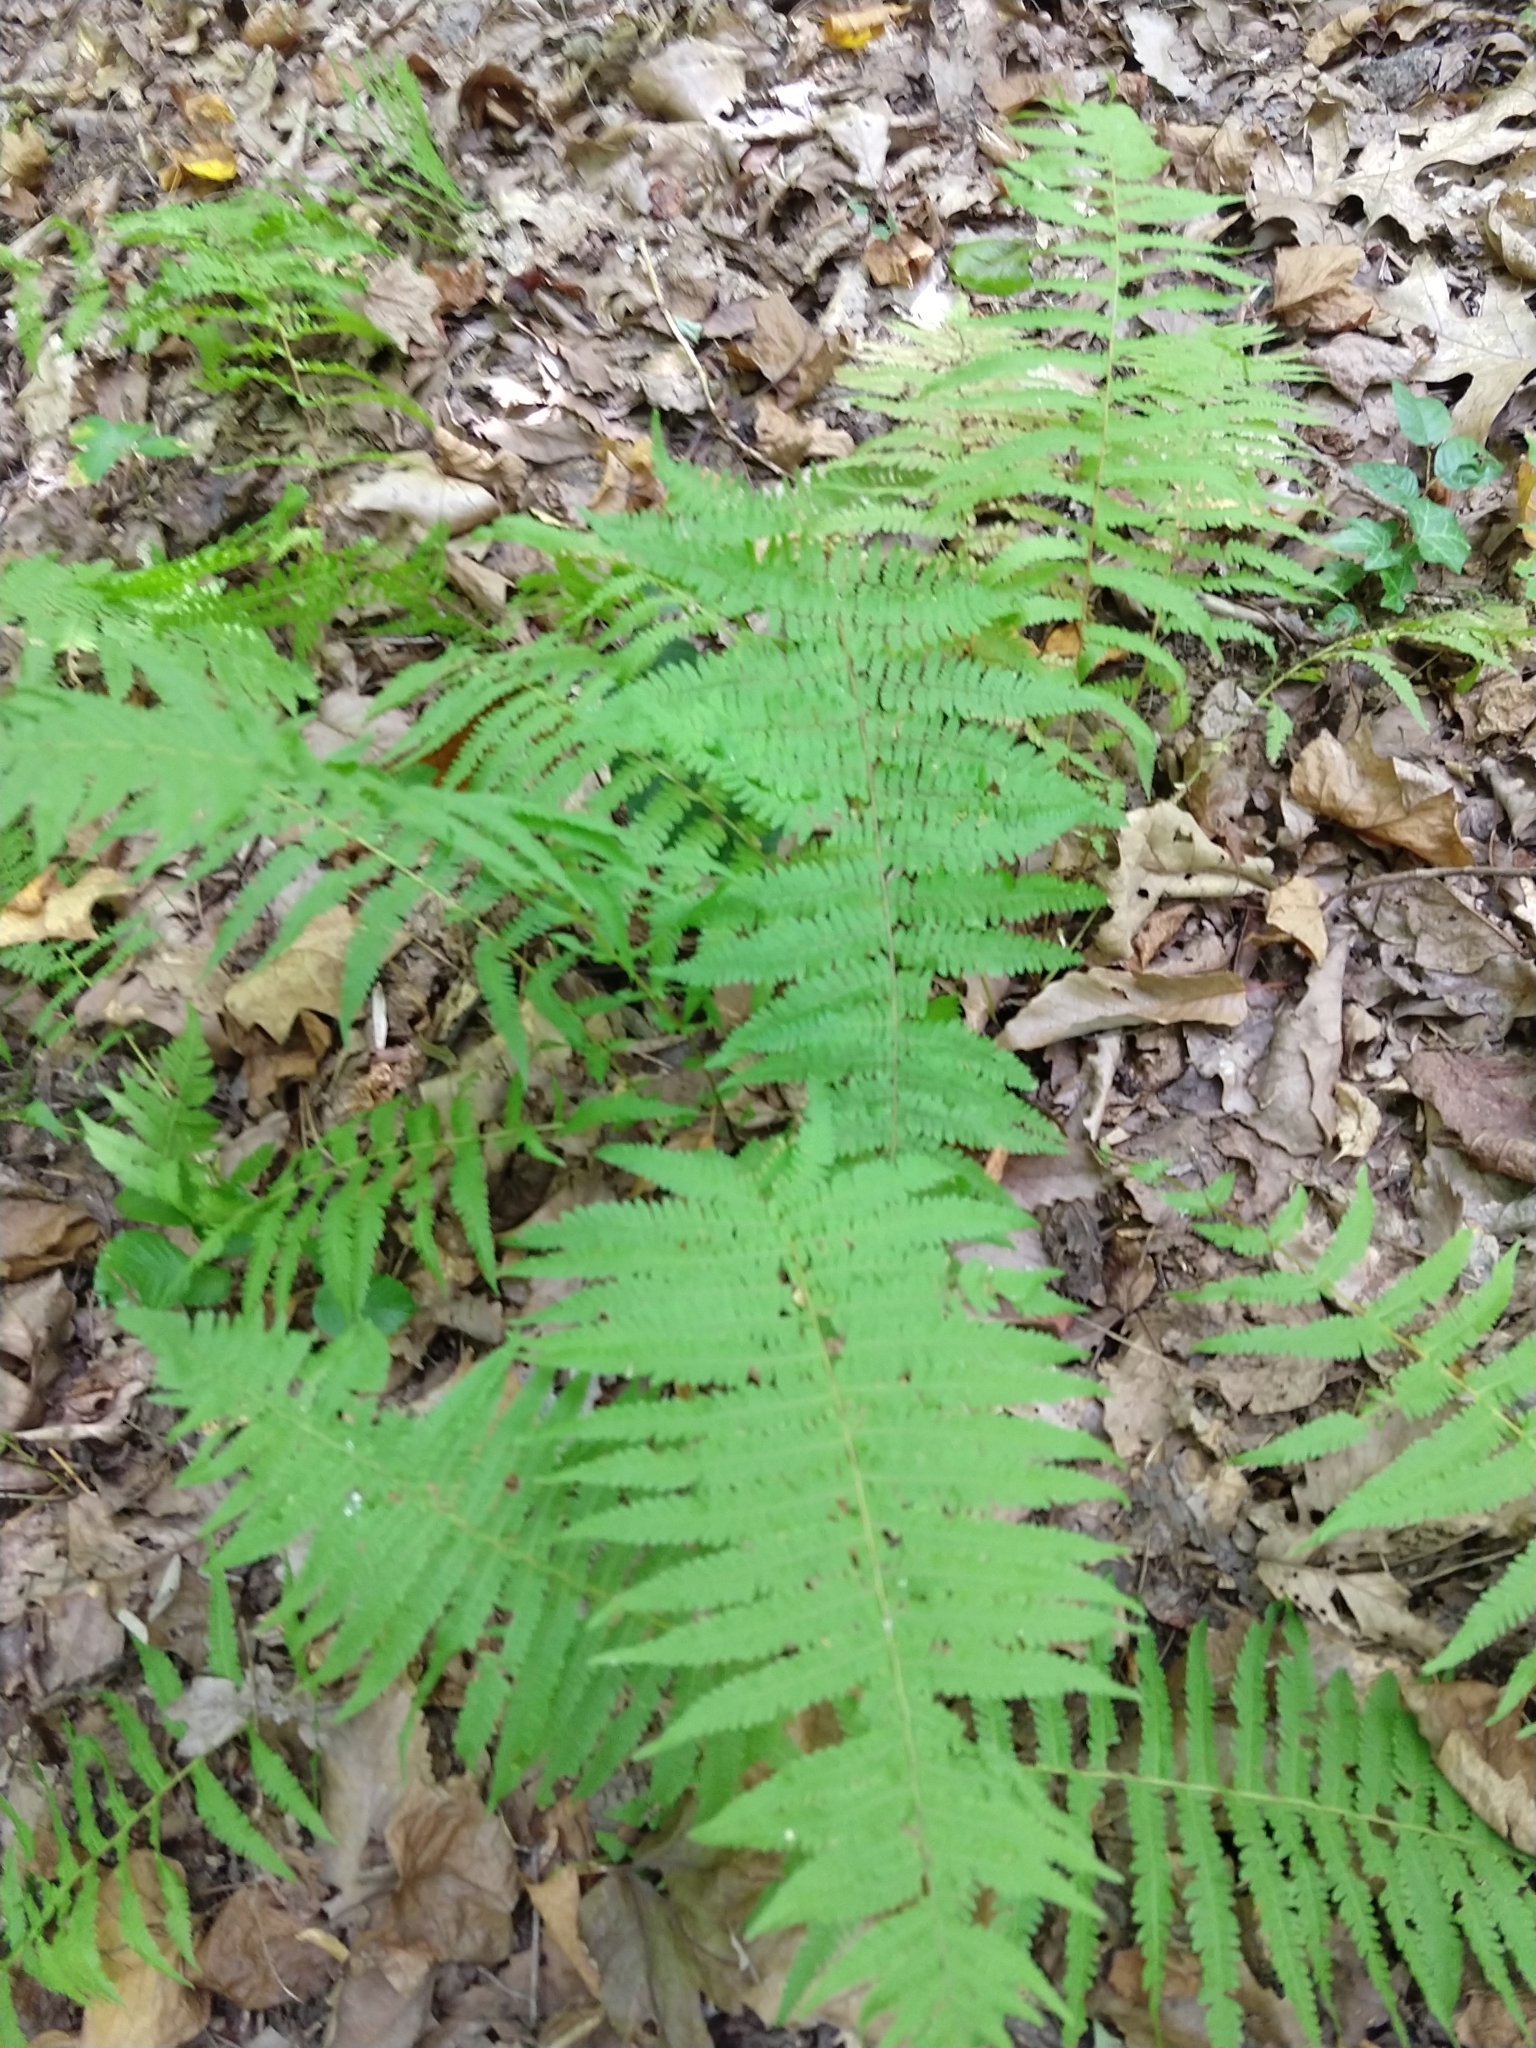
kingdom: Plantae
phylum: Tracheophyta
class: Polypodiopsida
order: Polypodiales
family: Thelypteridaceae
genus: Amauropelta
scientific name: Amauropelta noveboracensis
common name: New york fern
